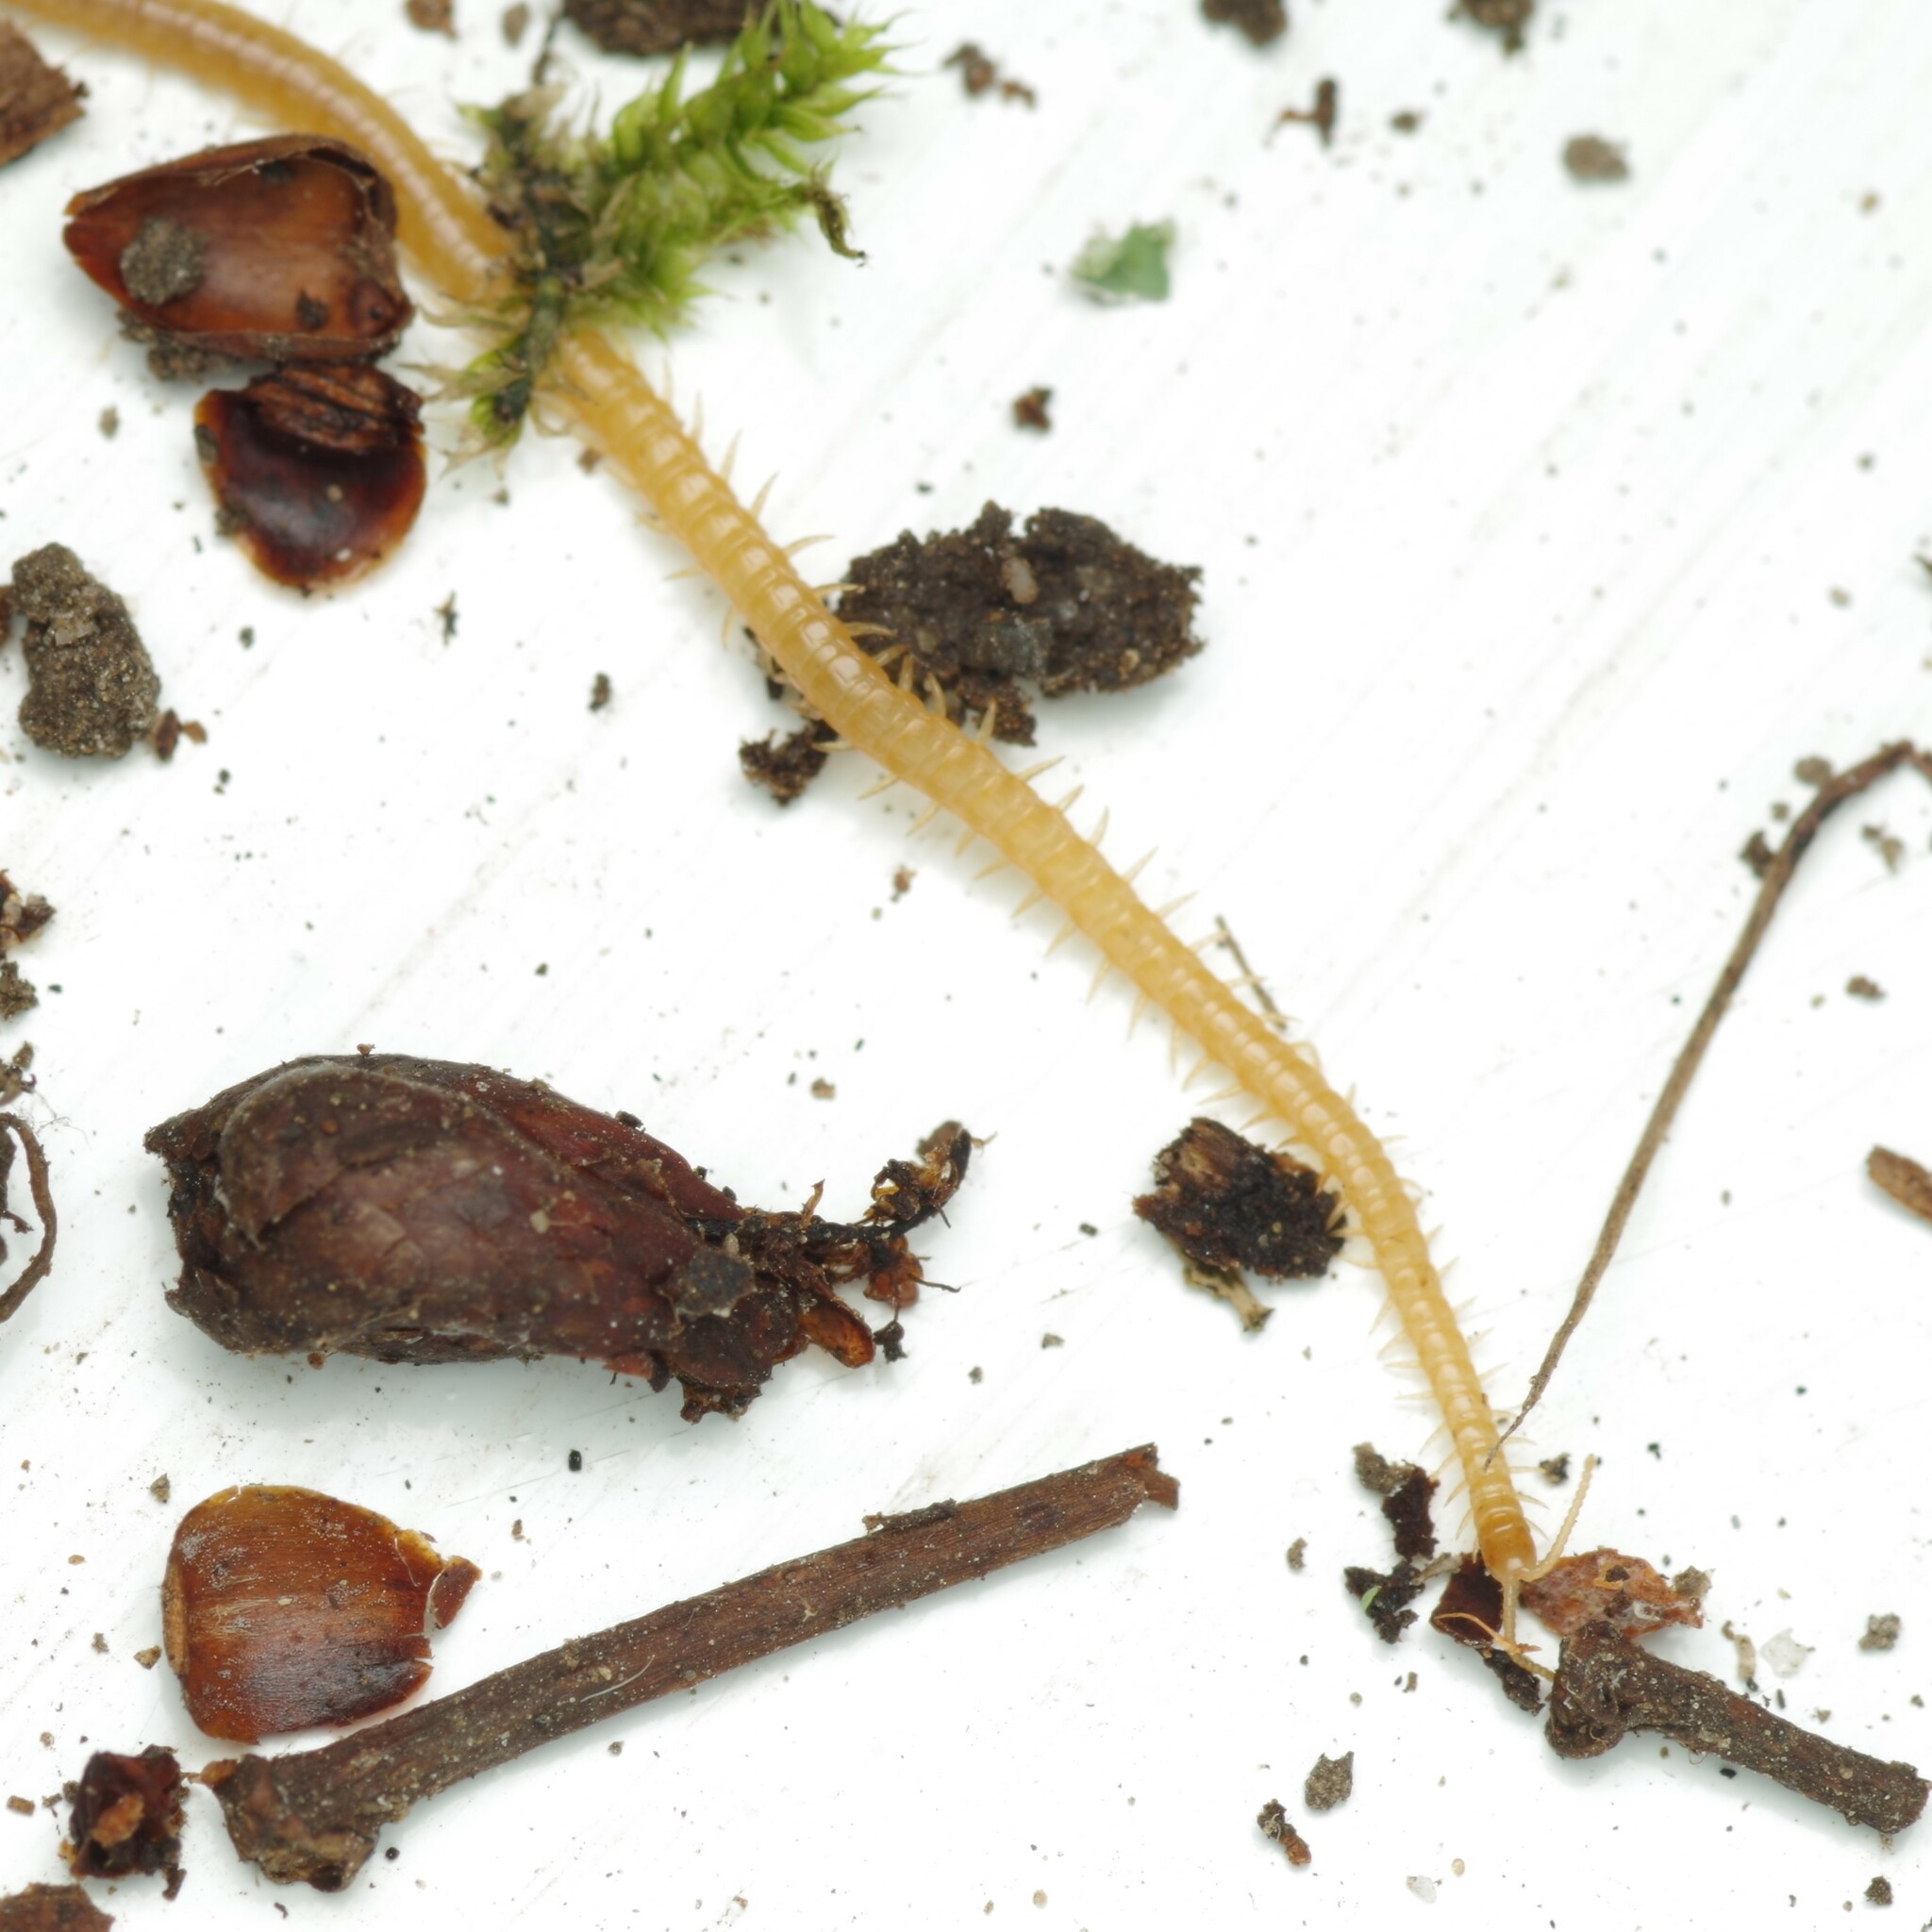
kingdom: Animalia
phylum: Arthropoda
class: Chilopoda
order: Geophilomorpha
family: Himantariidae
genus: Stigmatogaster
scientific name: Stigmatogaster subterranea
